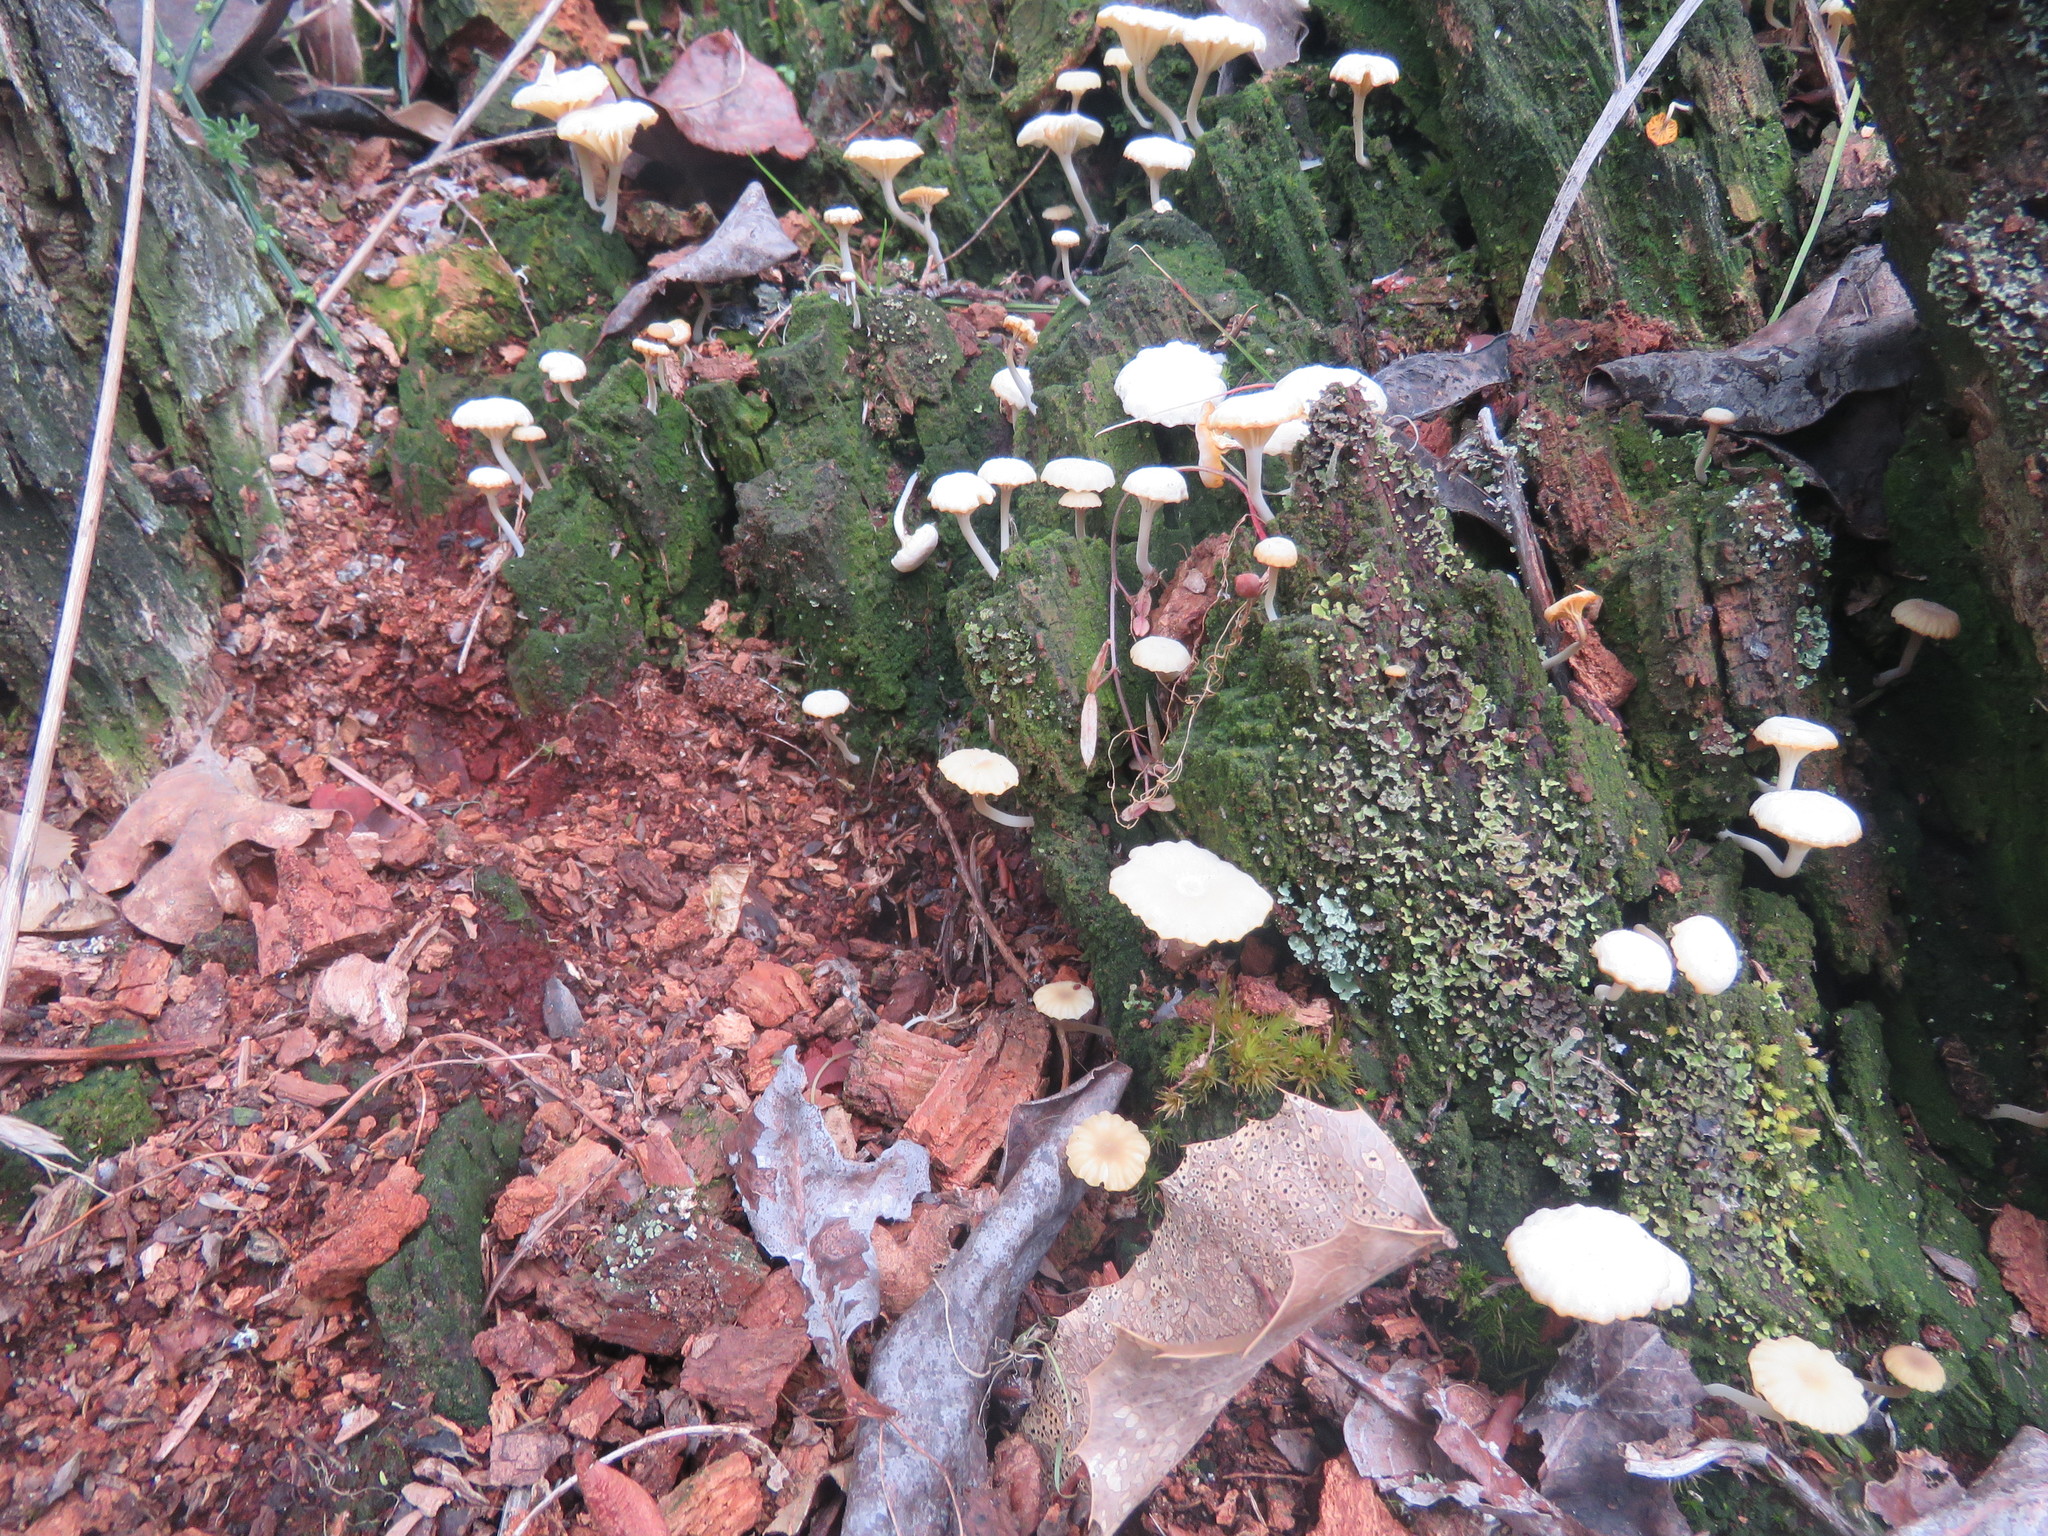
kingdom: Fungi
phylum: Basidiomycota
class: Agaricomycetes
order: Agaricales
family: Hygrophoraceae
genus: Lichenomphalia
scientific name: Lichenomphalia
